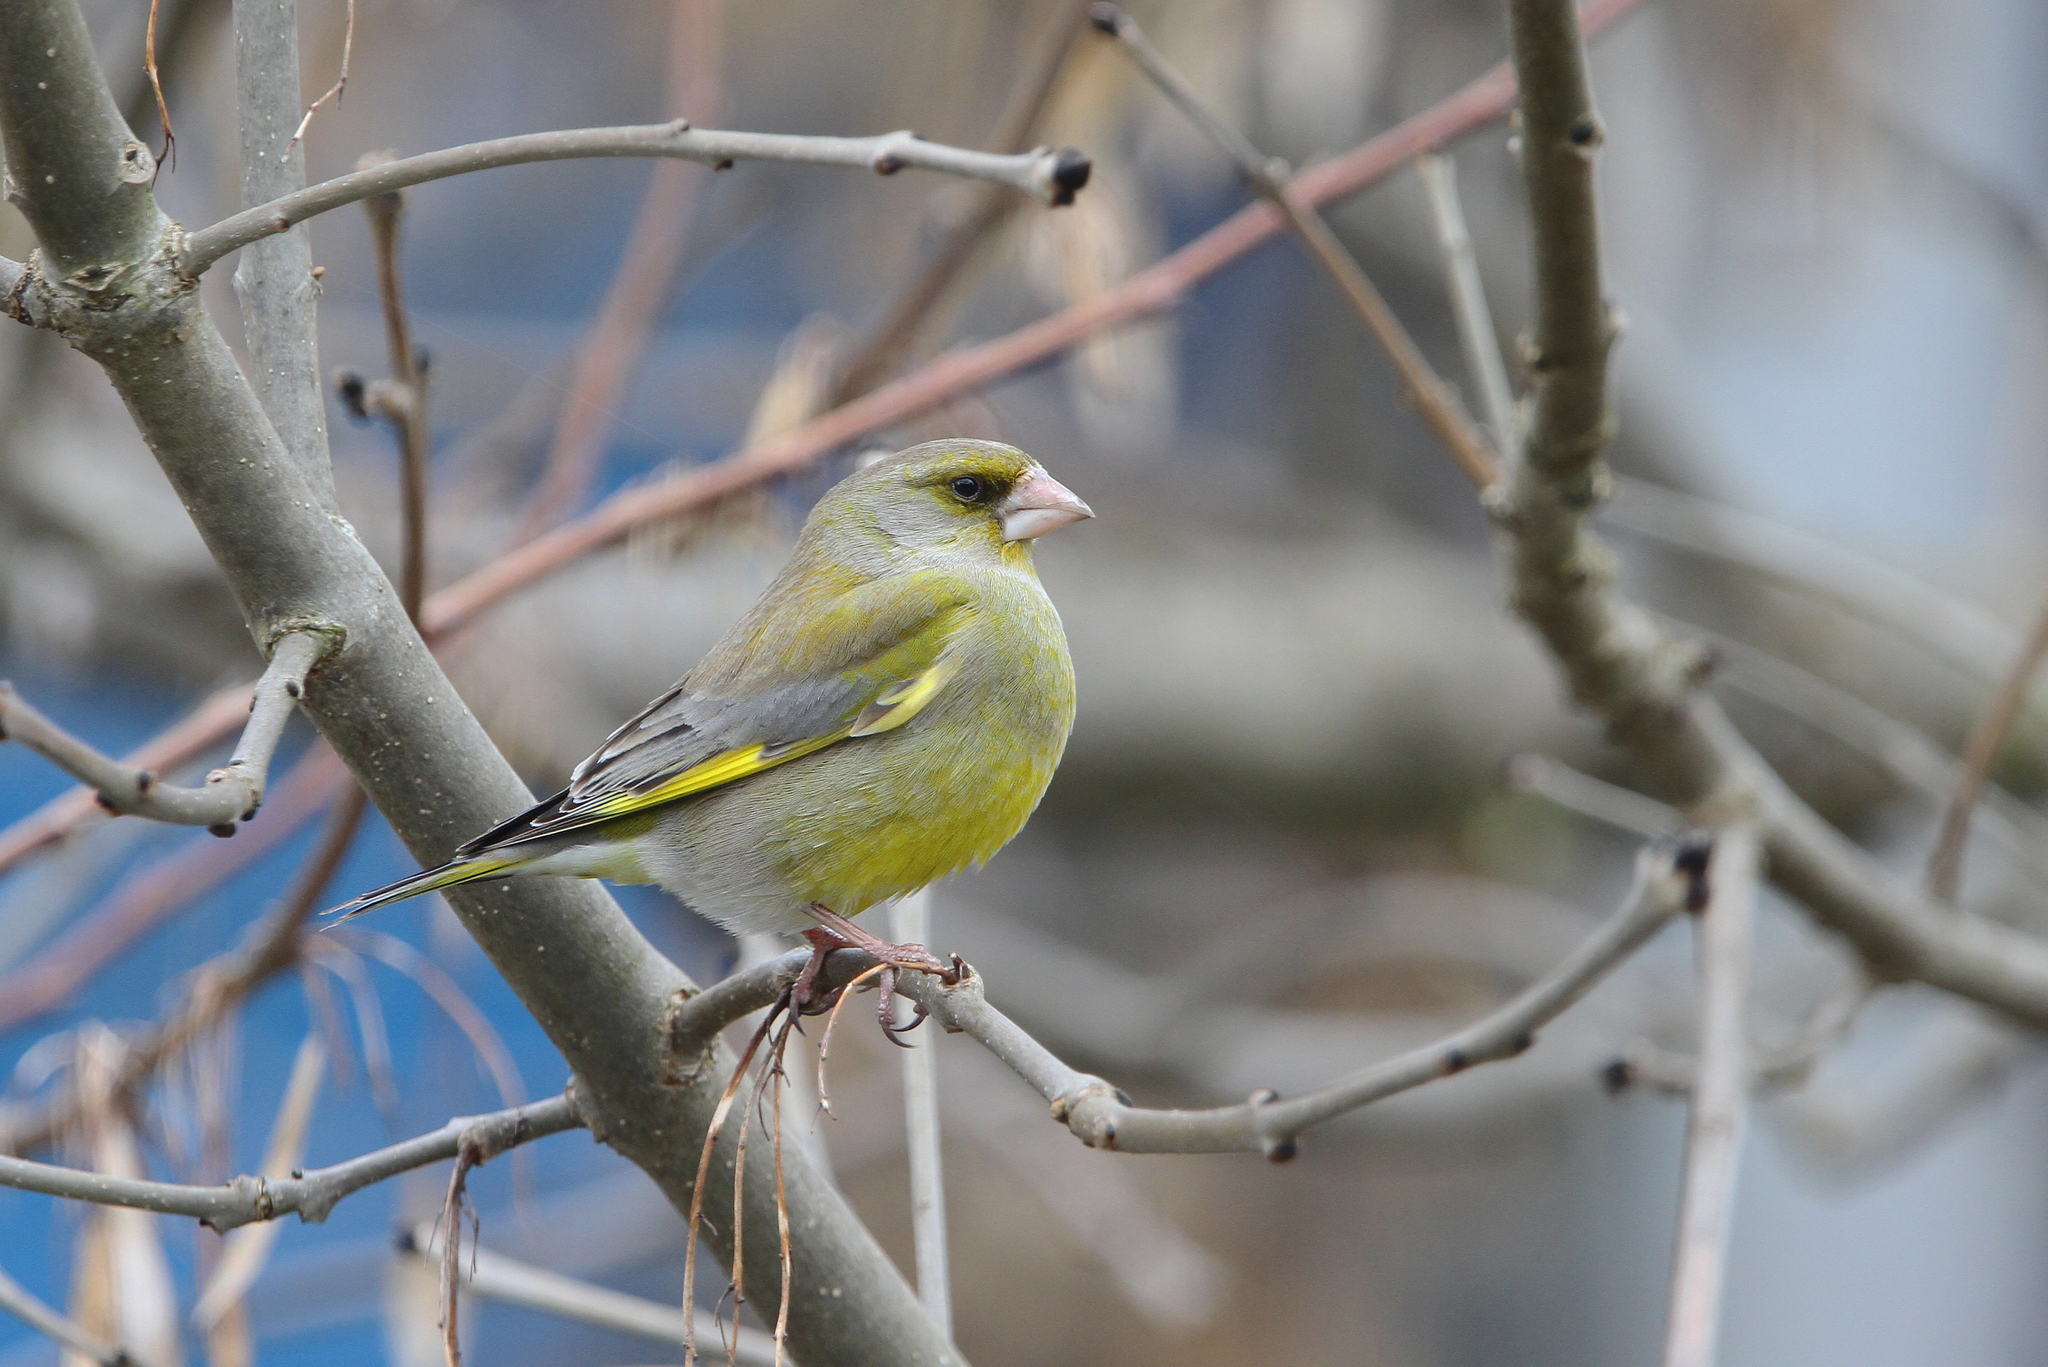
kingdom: Plantae
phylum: Tracheophyta
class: Liliopsida
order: Poales
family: Poaceae
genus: Chloris
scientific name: Chloris chloris
